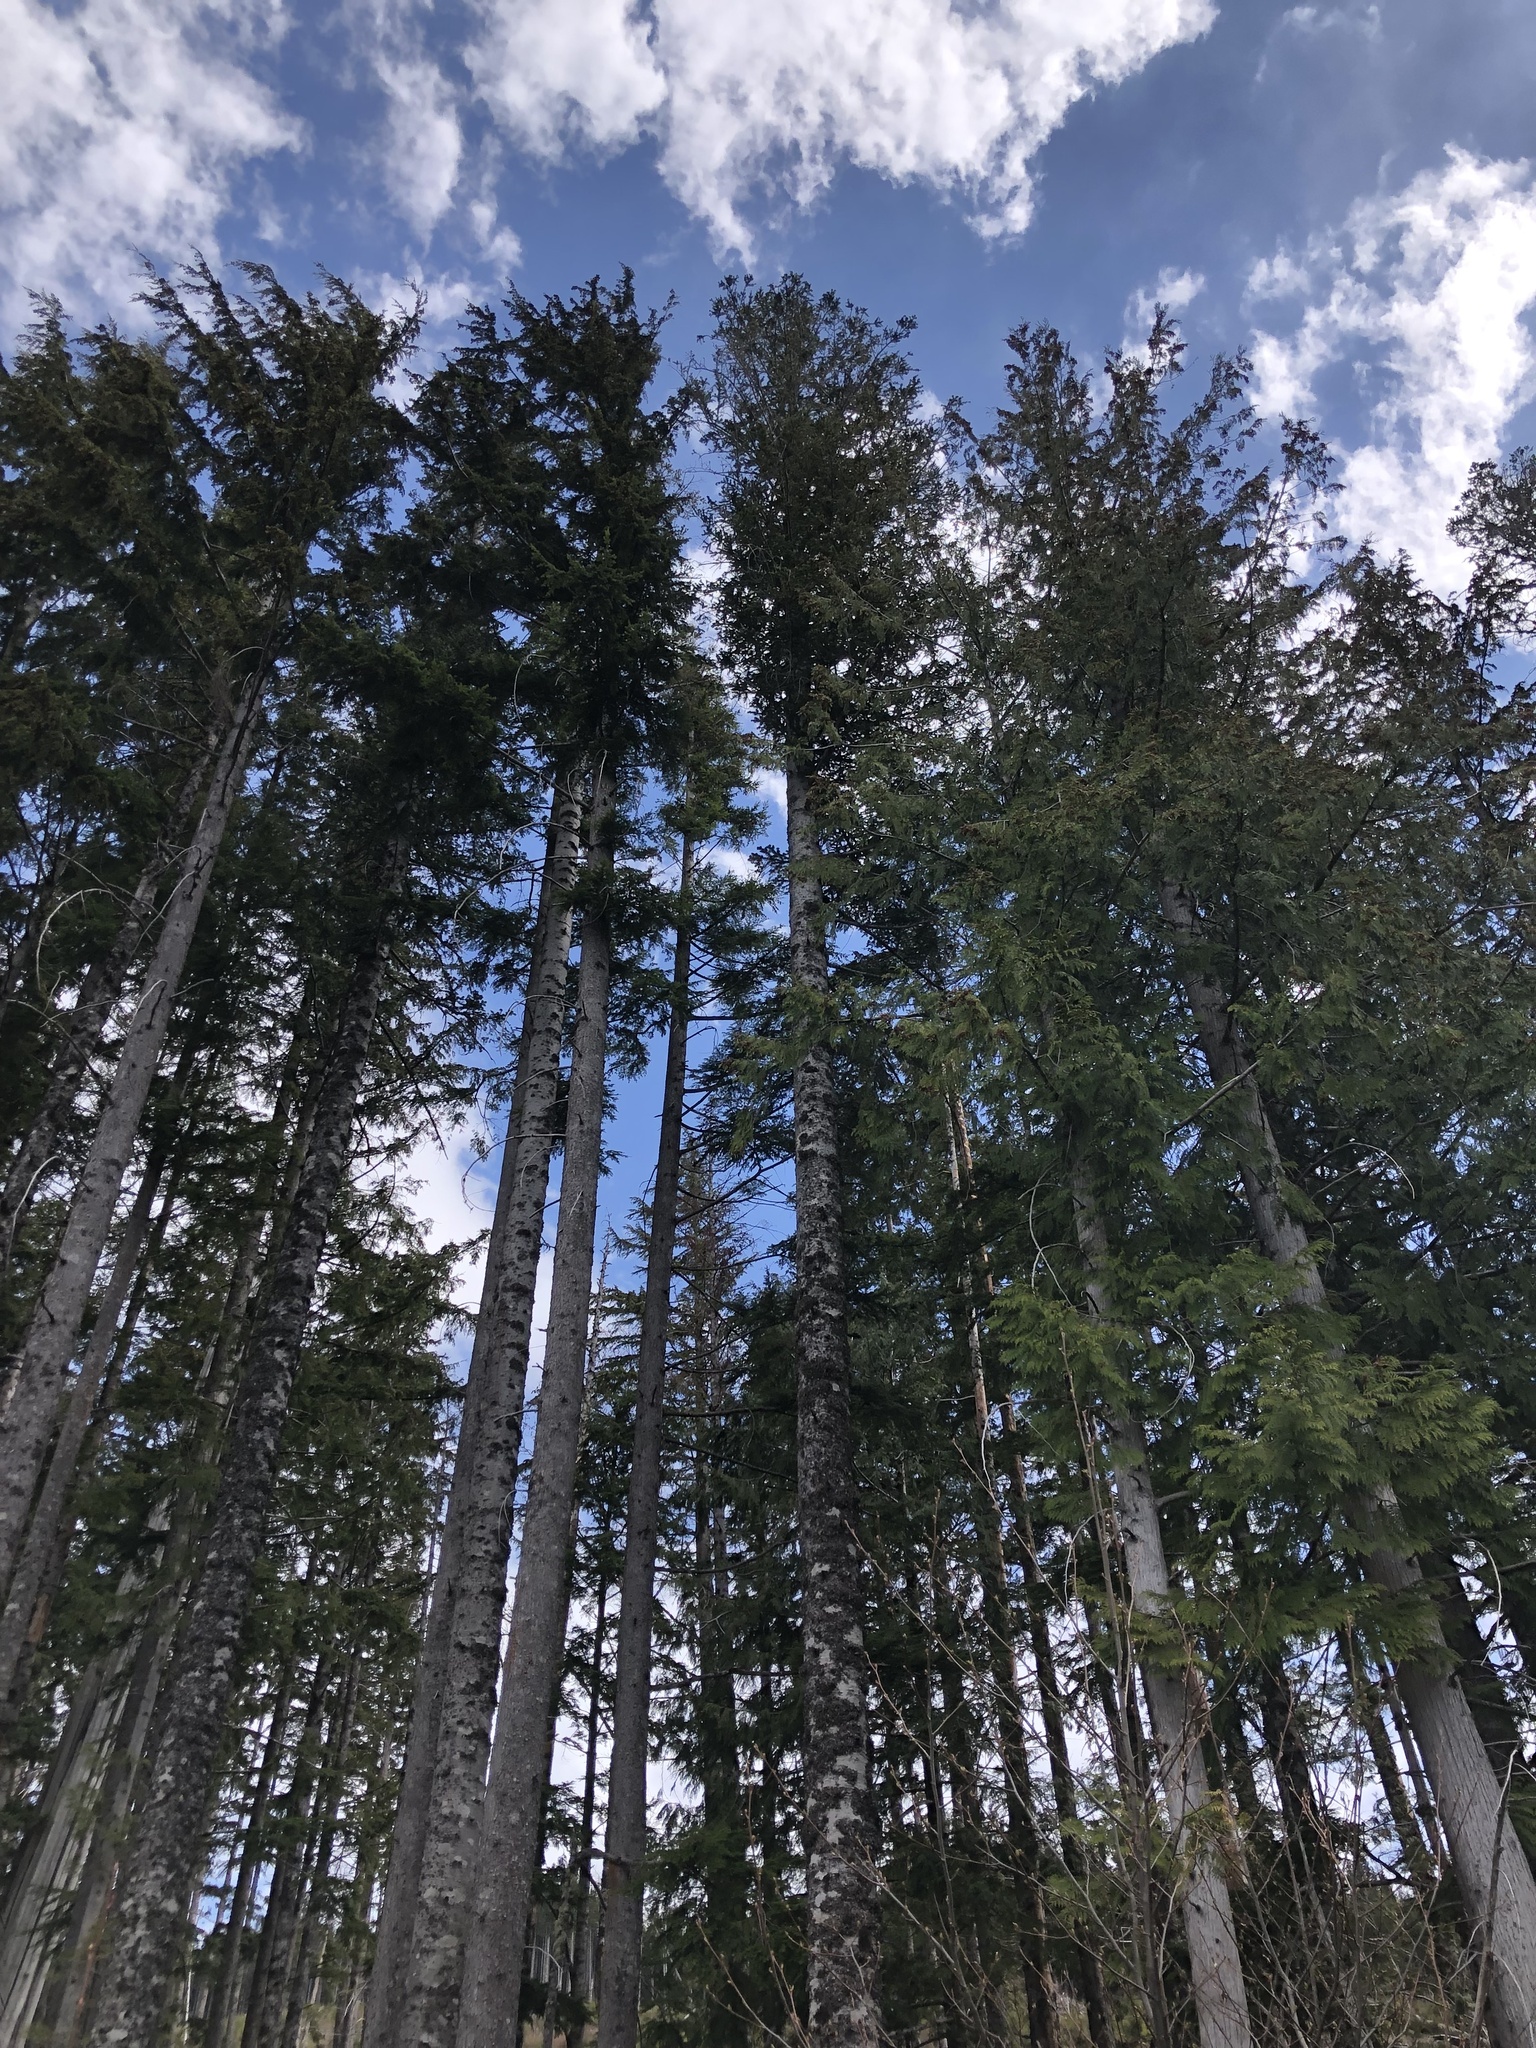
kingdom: Plantae
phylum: Tracheophyta
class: Pinopsida
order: Pinales
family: Pinaceae
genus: Abies
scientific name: Abies amabilis
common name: Pacific silver fir
